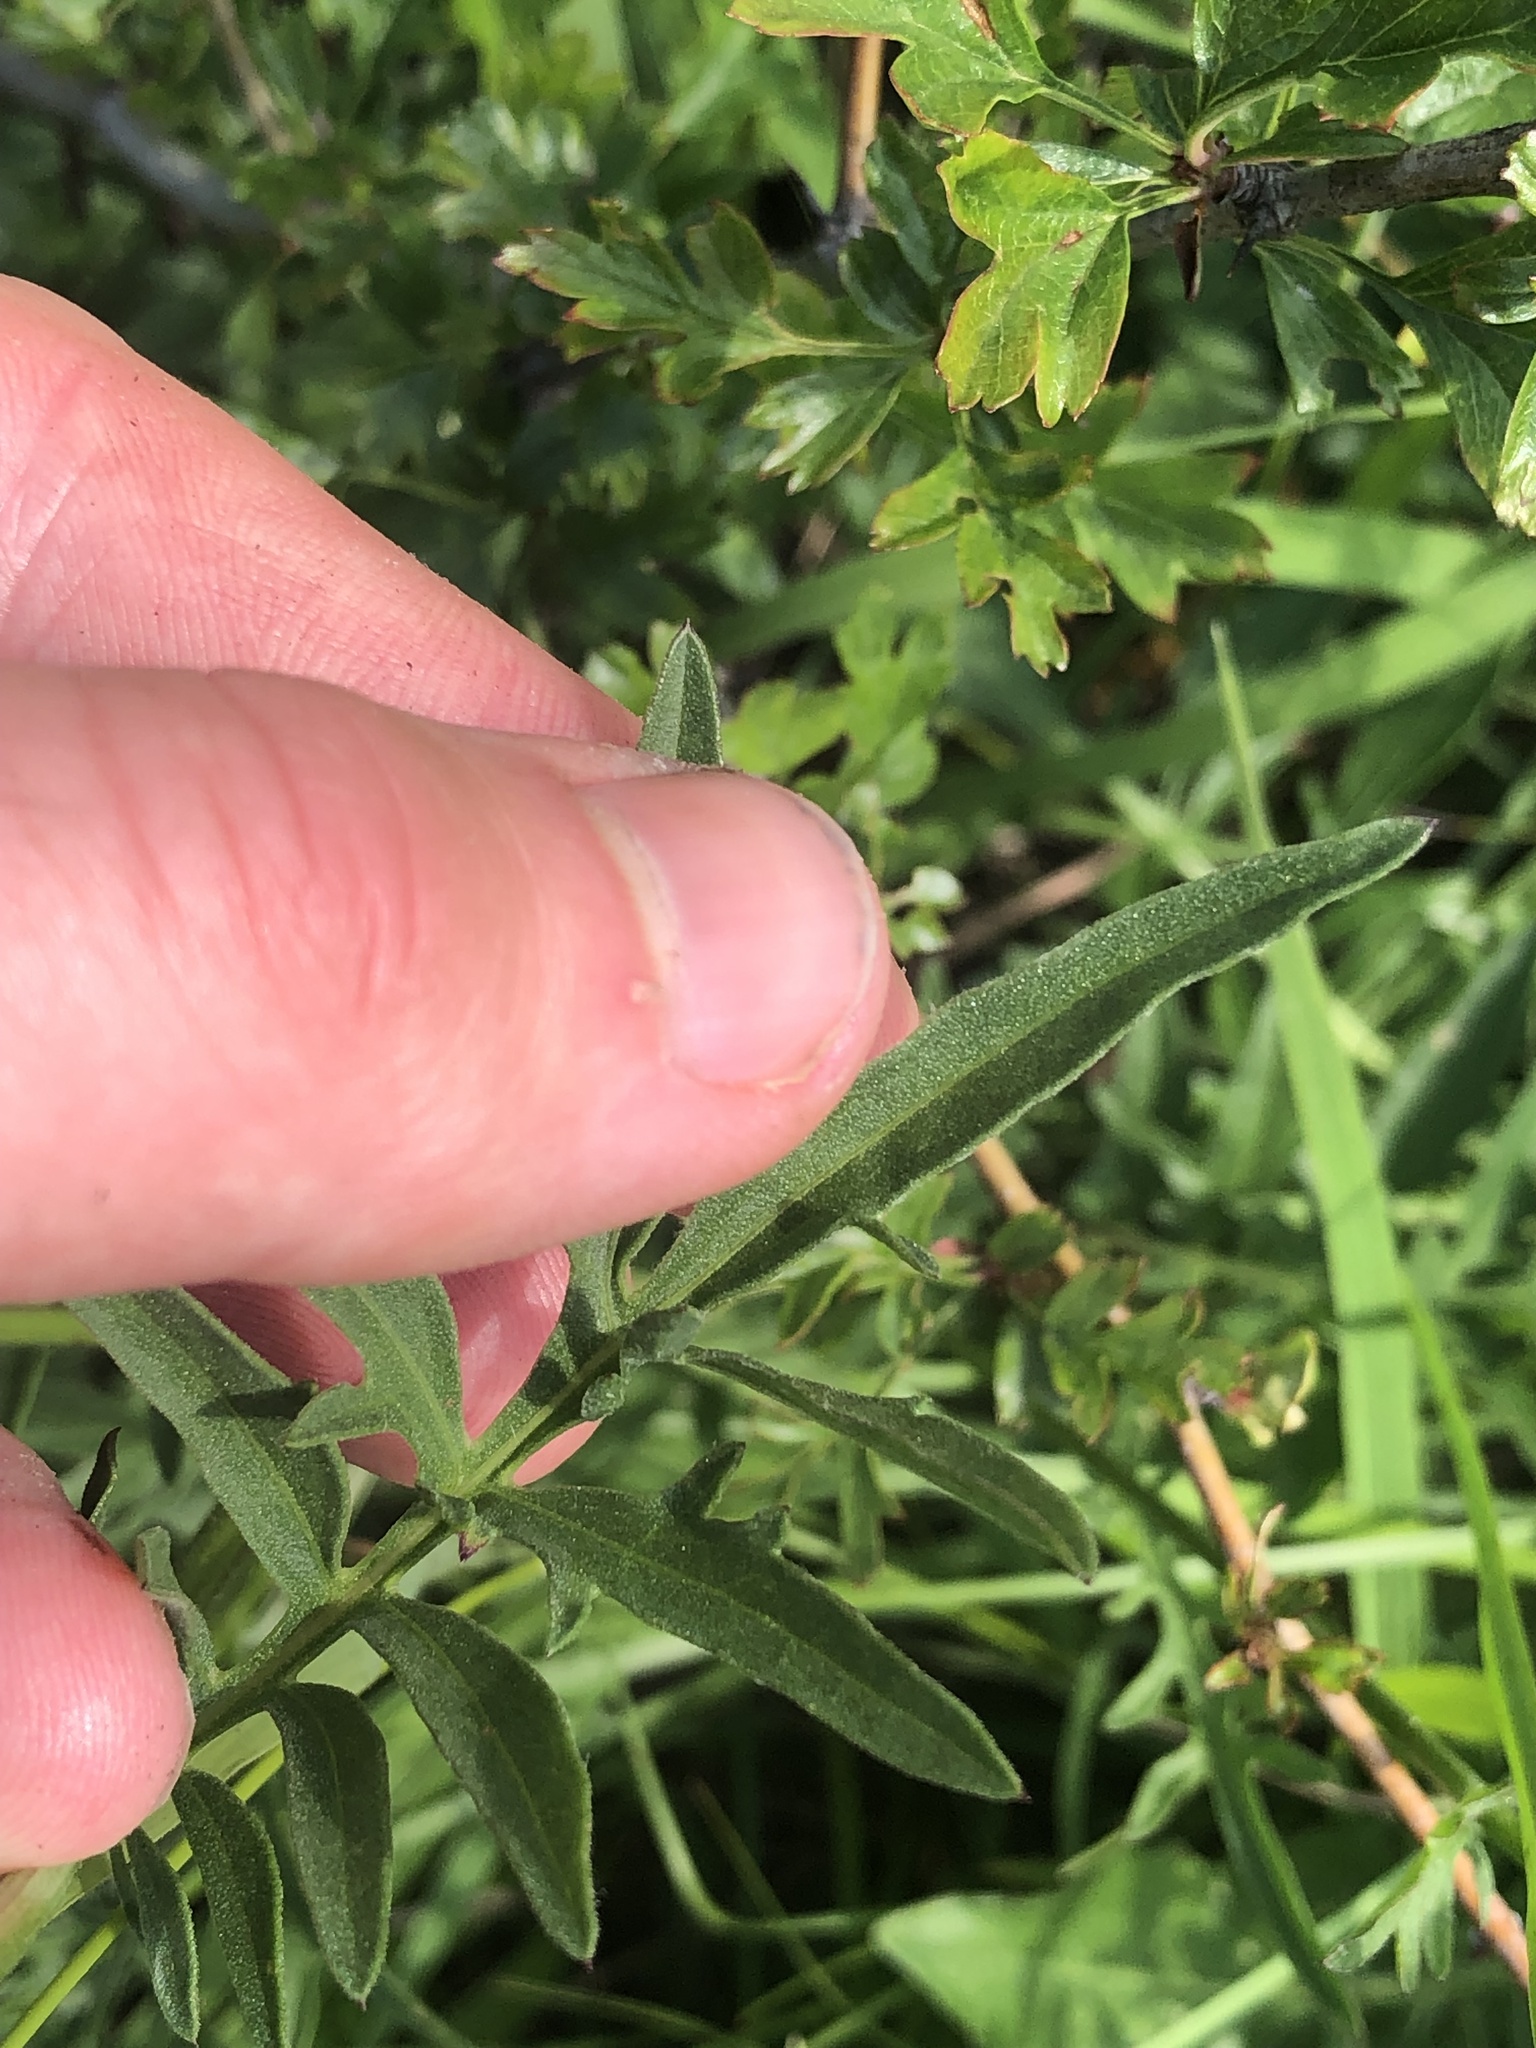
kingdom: Plantae
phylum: Tracheophyta
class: Magnoliopsida
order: Asterales
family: Asteraceae
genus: Centaurea
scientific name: Centaurea scabiosa
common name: Greater knapweed
